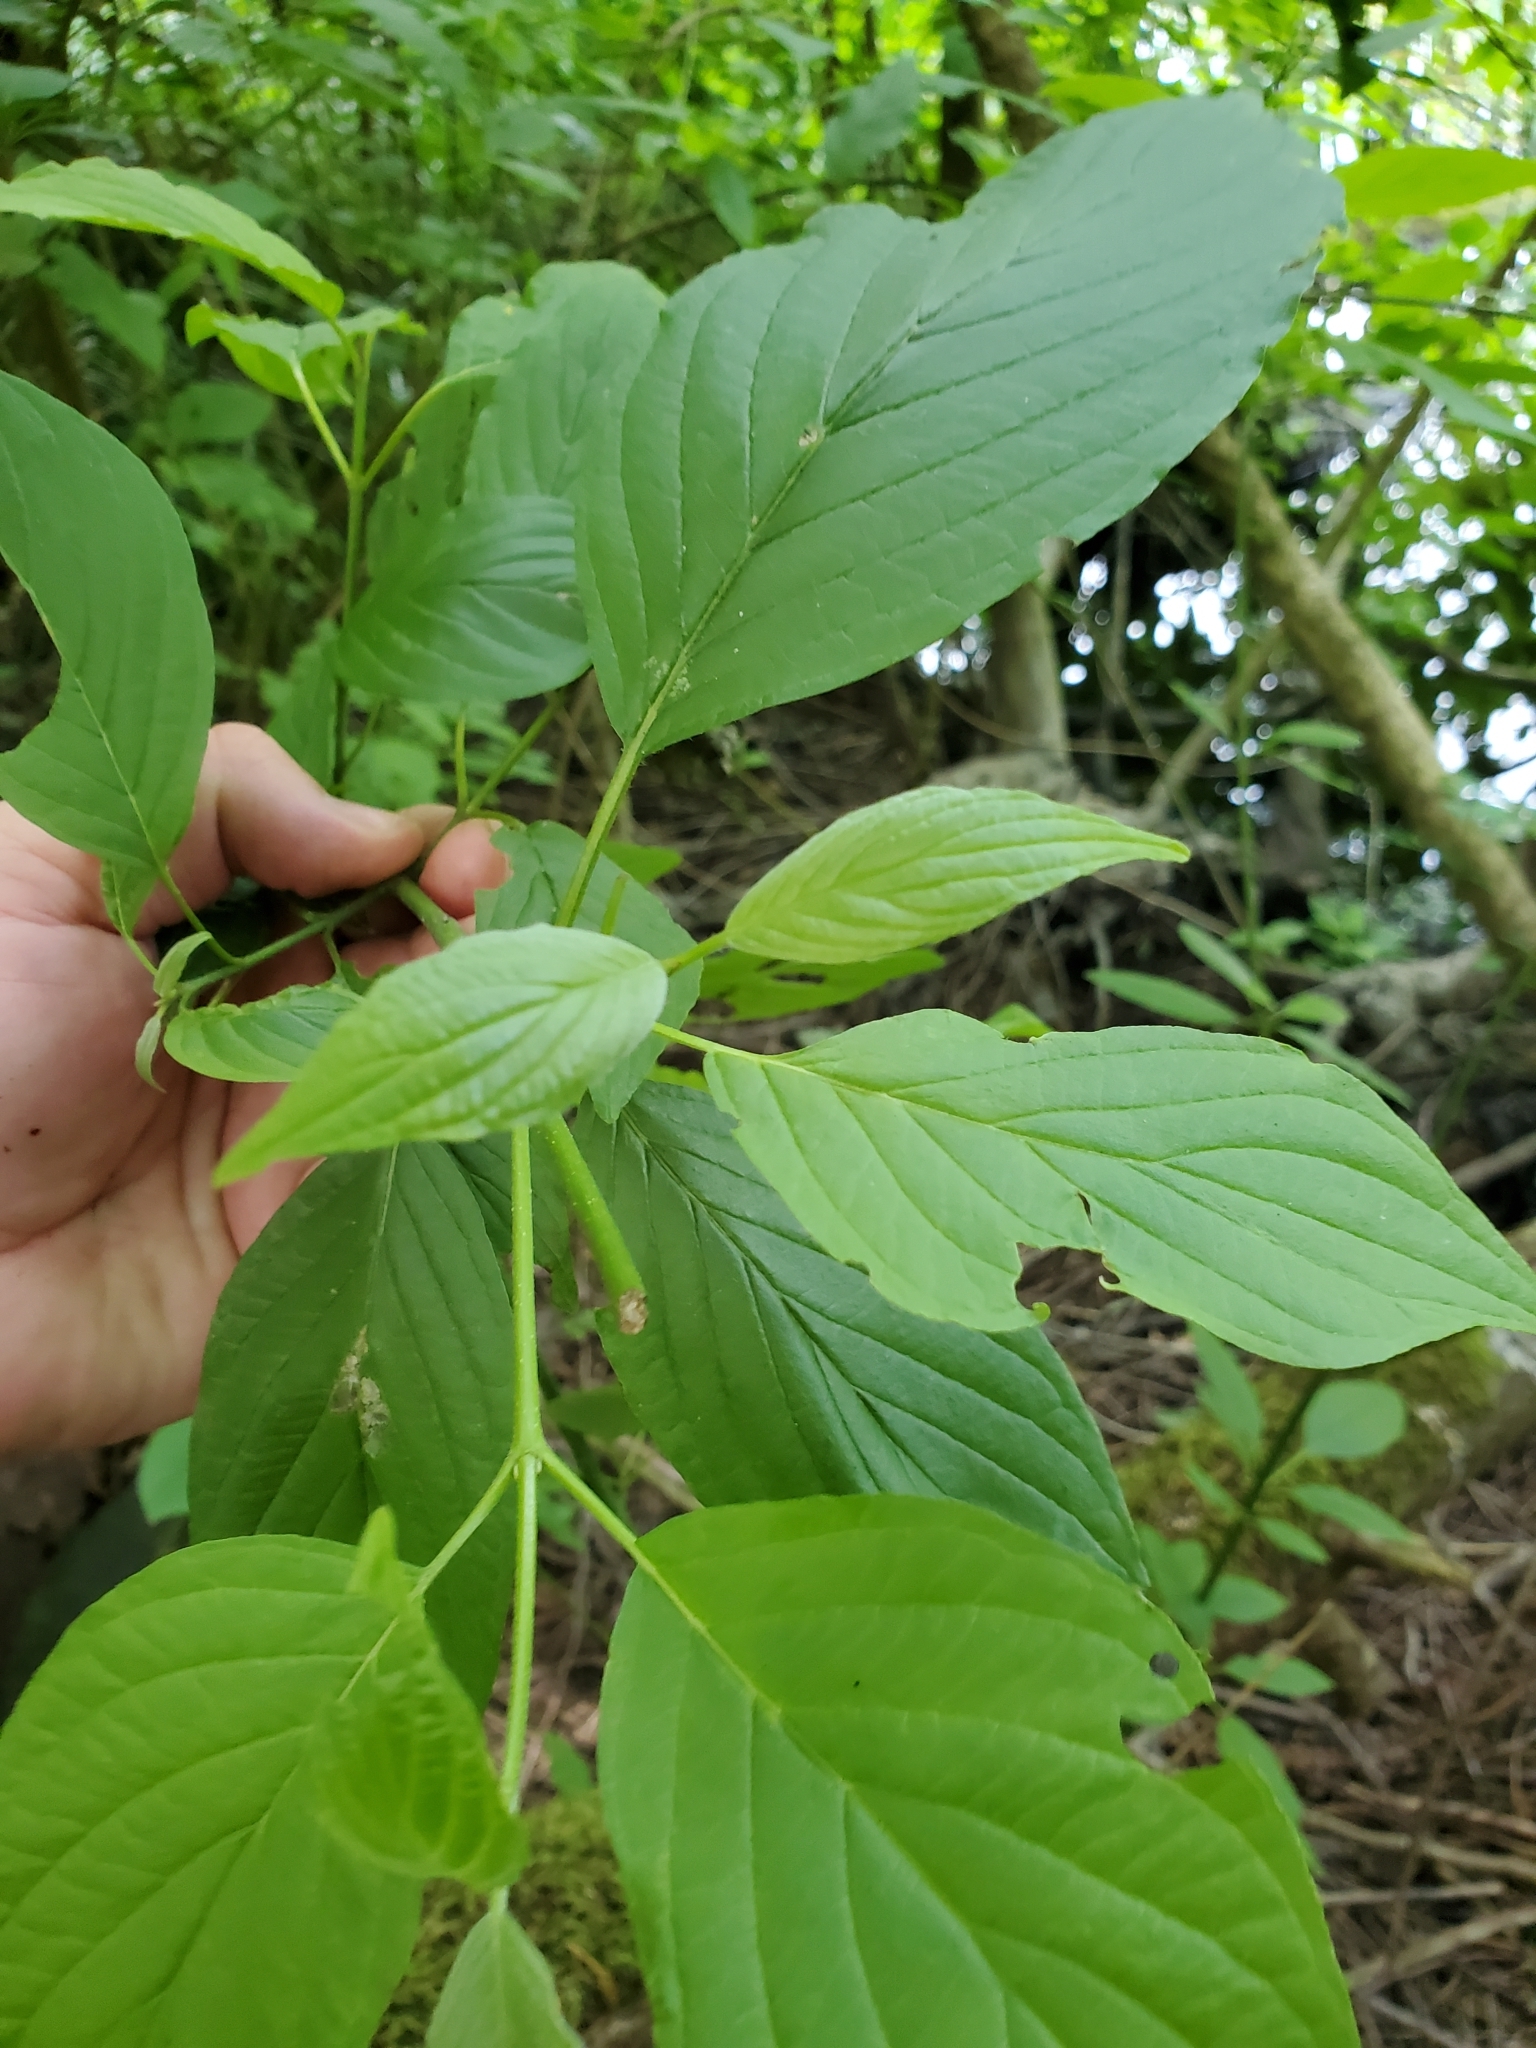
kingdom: Plantae
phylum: Tracheophyta
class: Magnoliopsida
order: Cornales
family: Cornaceae
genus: Cornus
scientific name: Cornus sericea
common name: Red-osier dogwood
